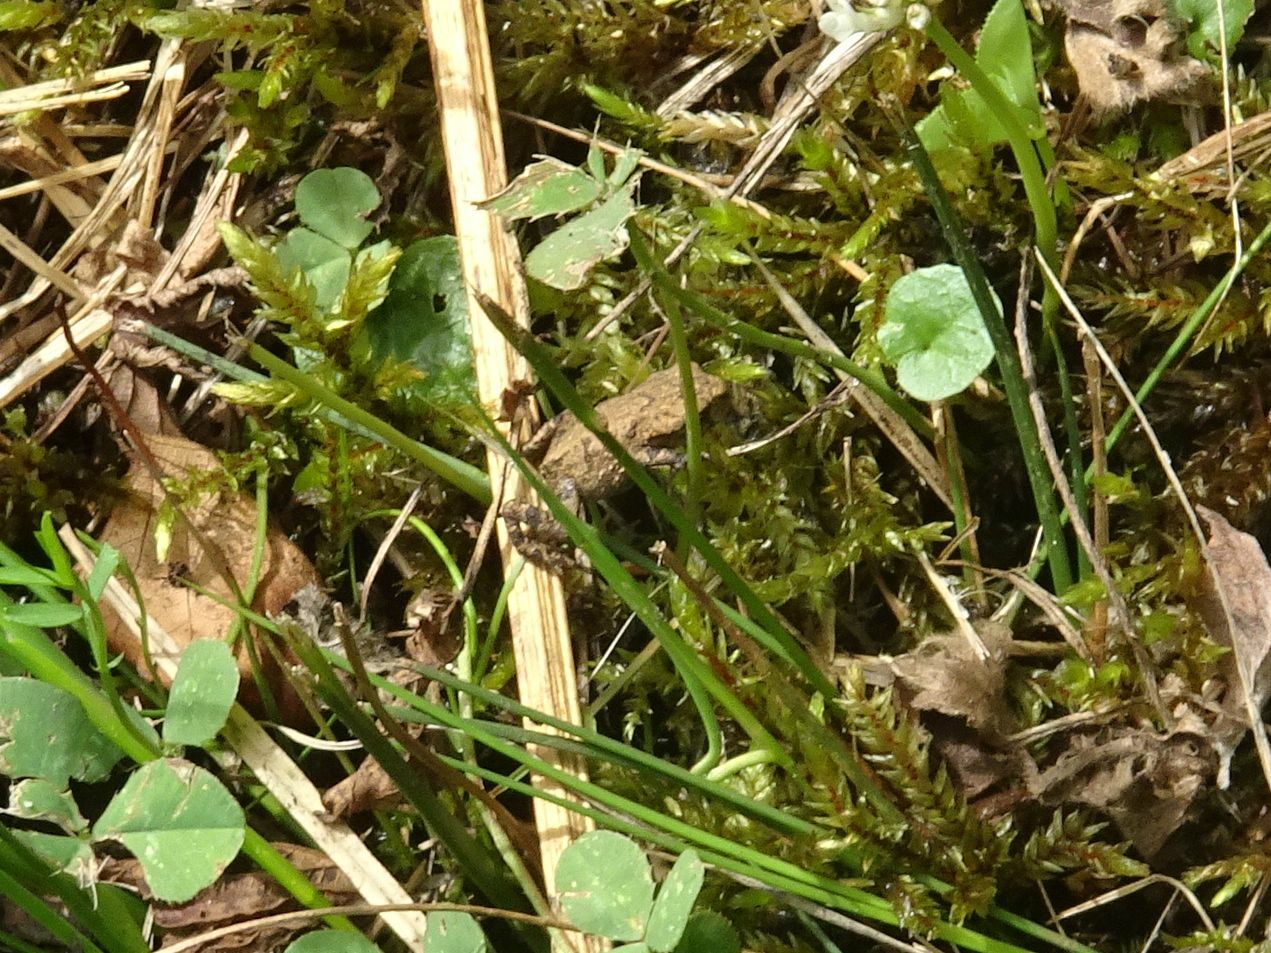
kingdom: Animalia
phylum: Chordata
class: Amphibia
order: Anura
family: Bufonidae
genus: Bufo
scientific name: Bufo bufo
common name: Common toad
